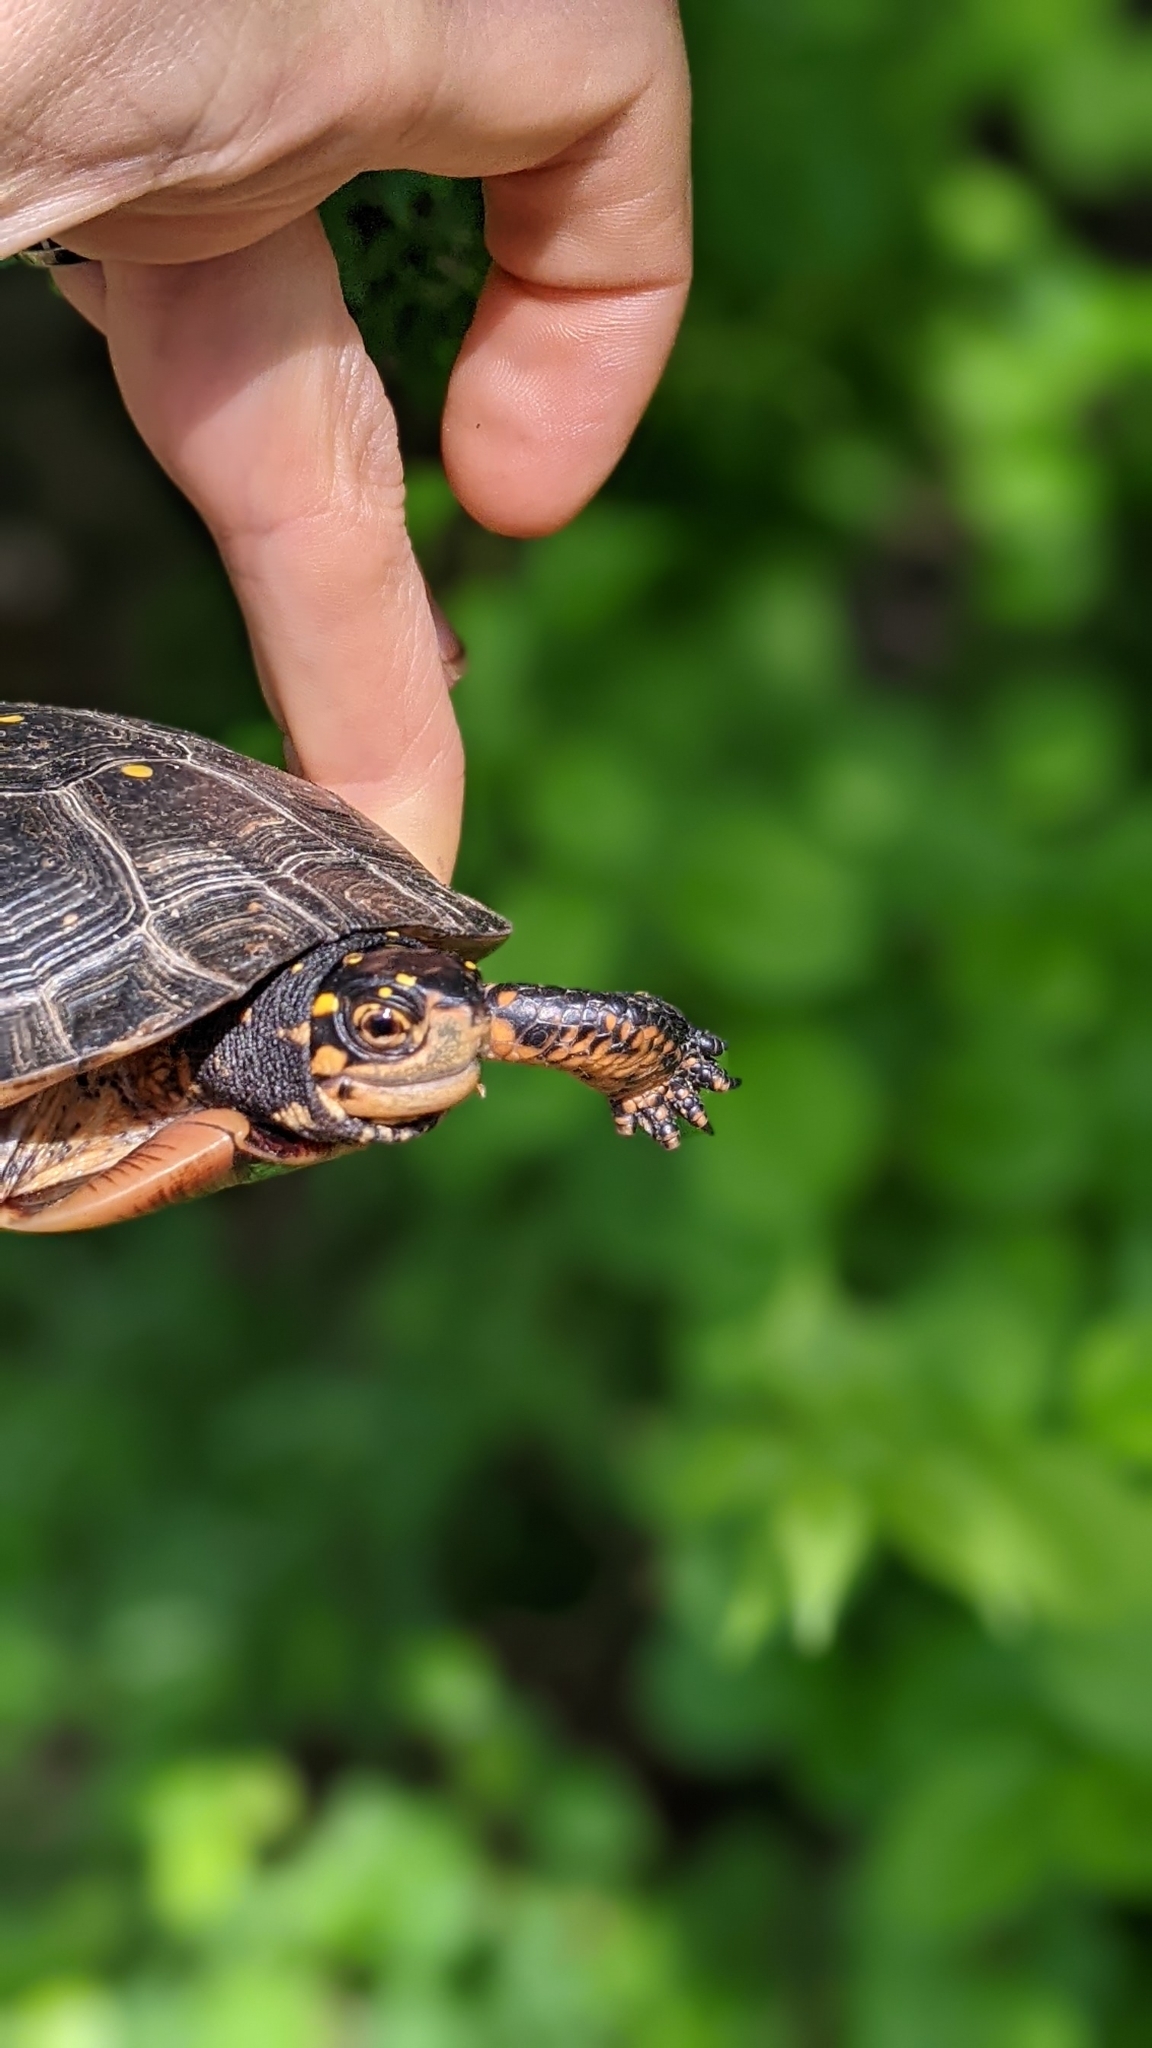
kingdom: Animalia
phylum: Chordata
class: Testudines
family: Emydidae
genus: Clemmys
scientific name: Clemmys guttata
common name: Spotted turtle
